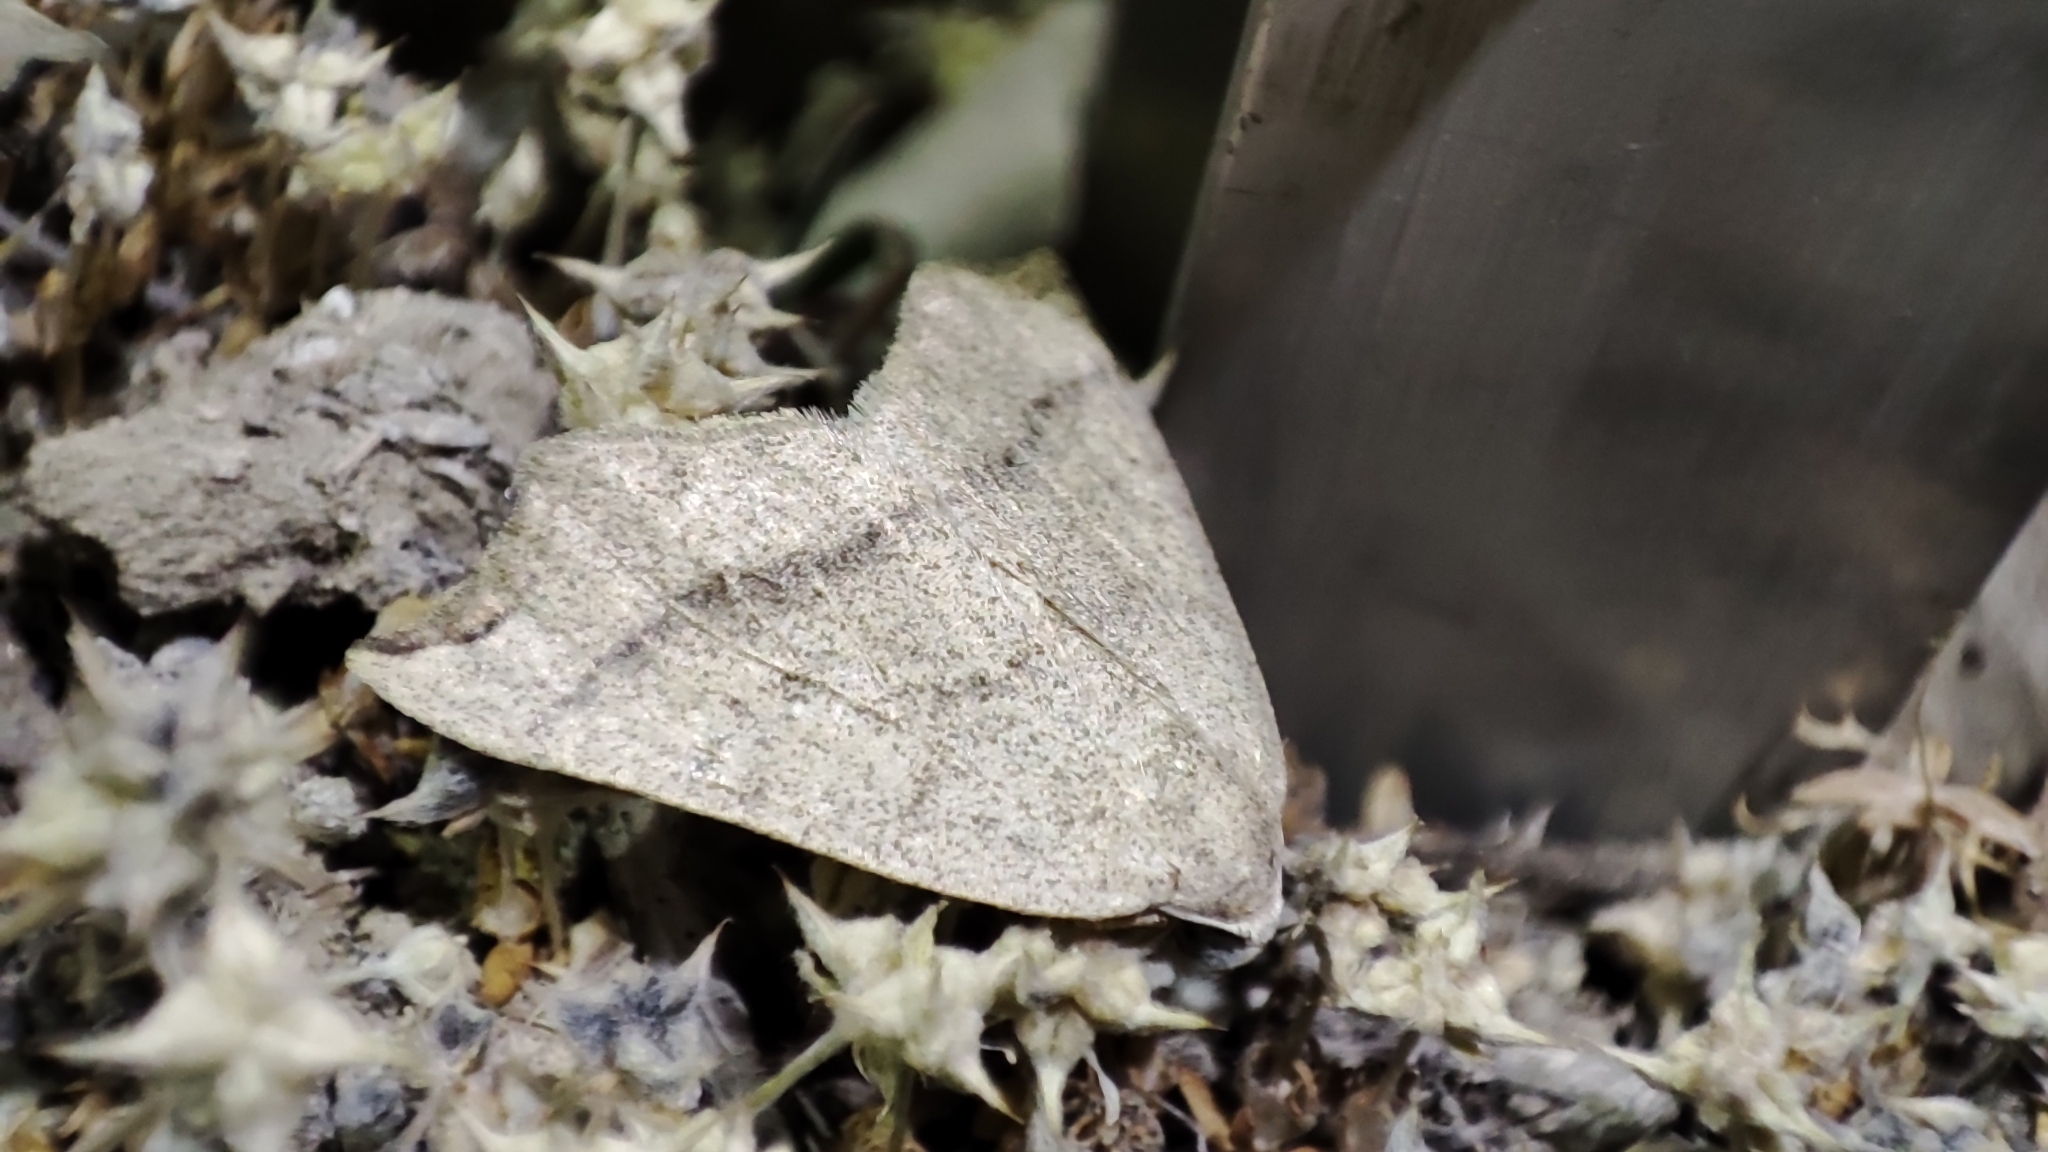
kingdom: Animalia
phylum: Arthropoda
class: Insecta
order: Lepidoptera
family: Geometridae
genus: Eilicrinia
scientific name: Eilicrinia subcordaria
